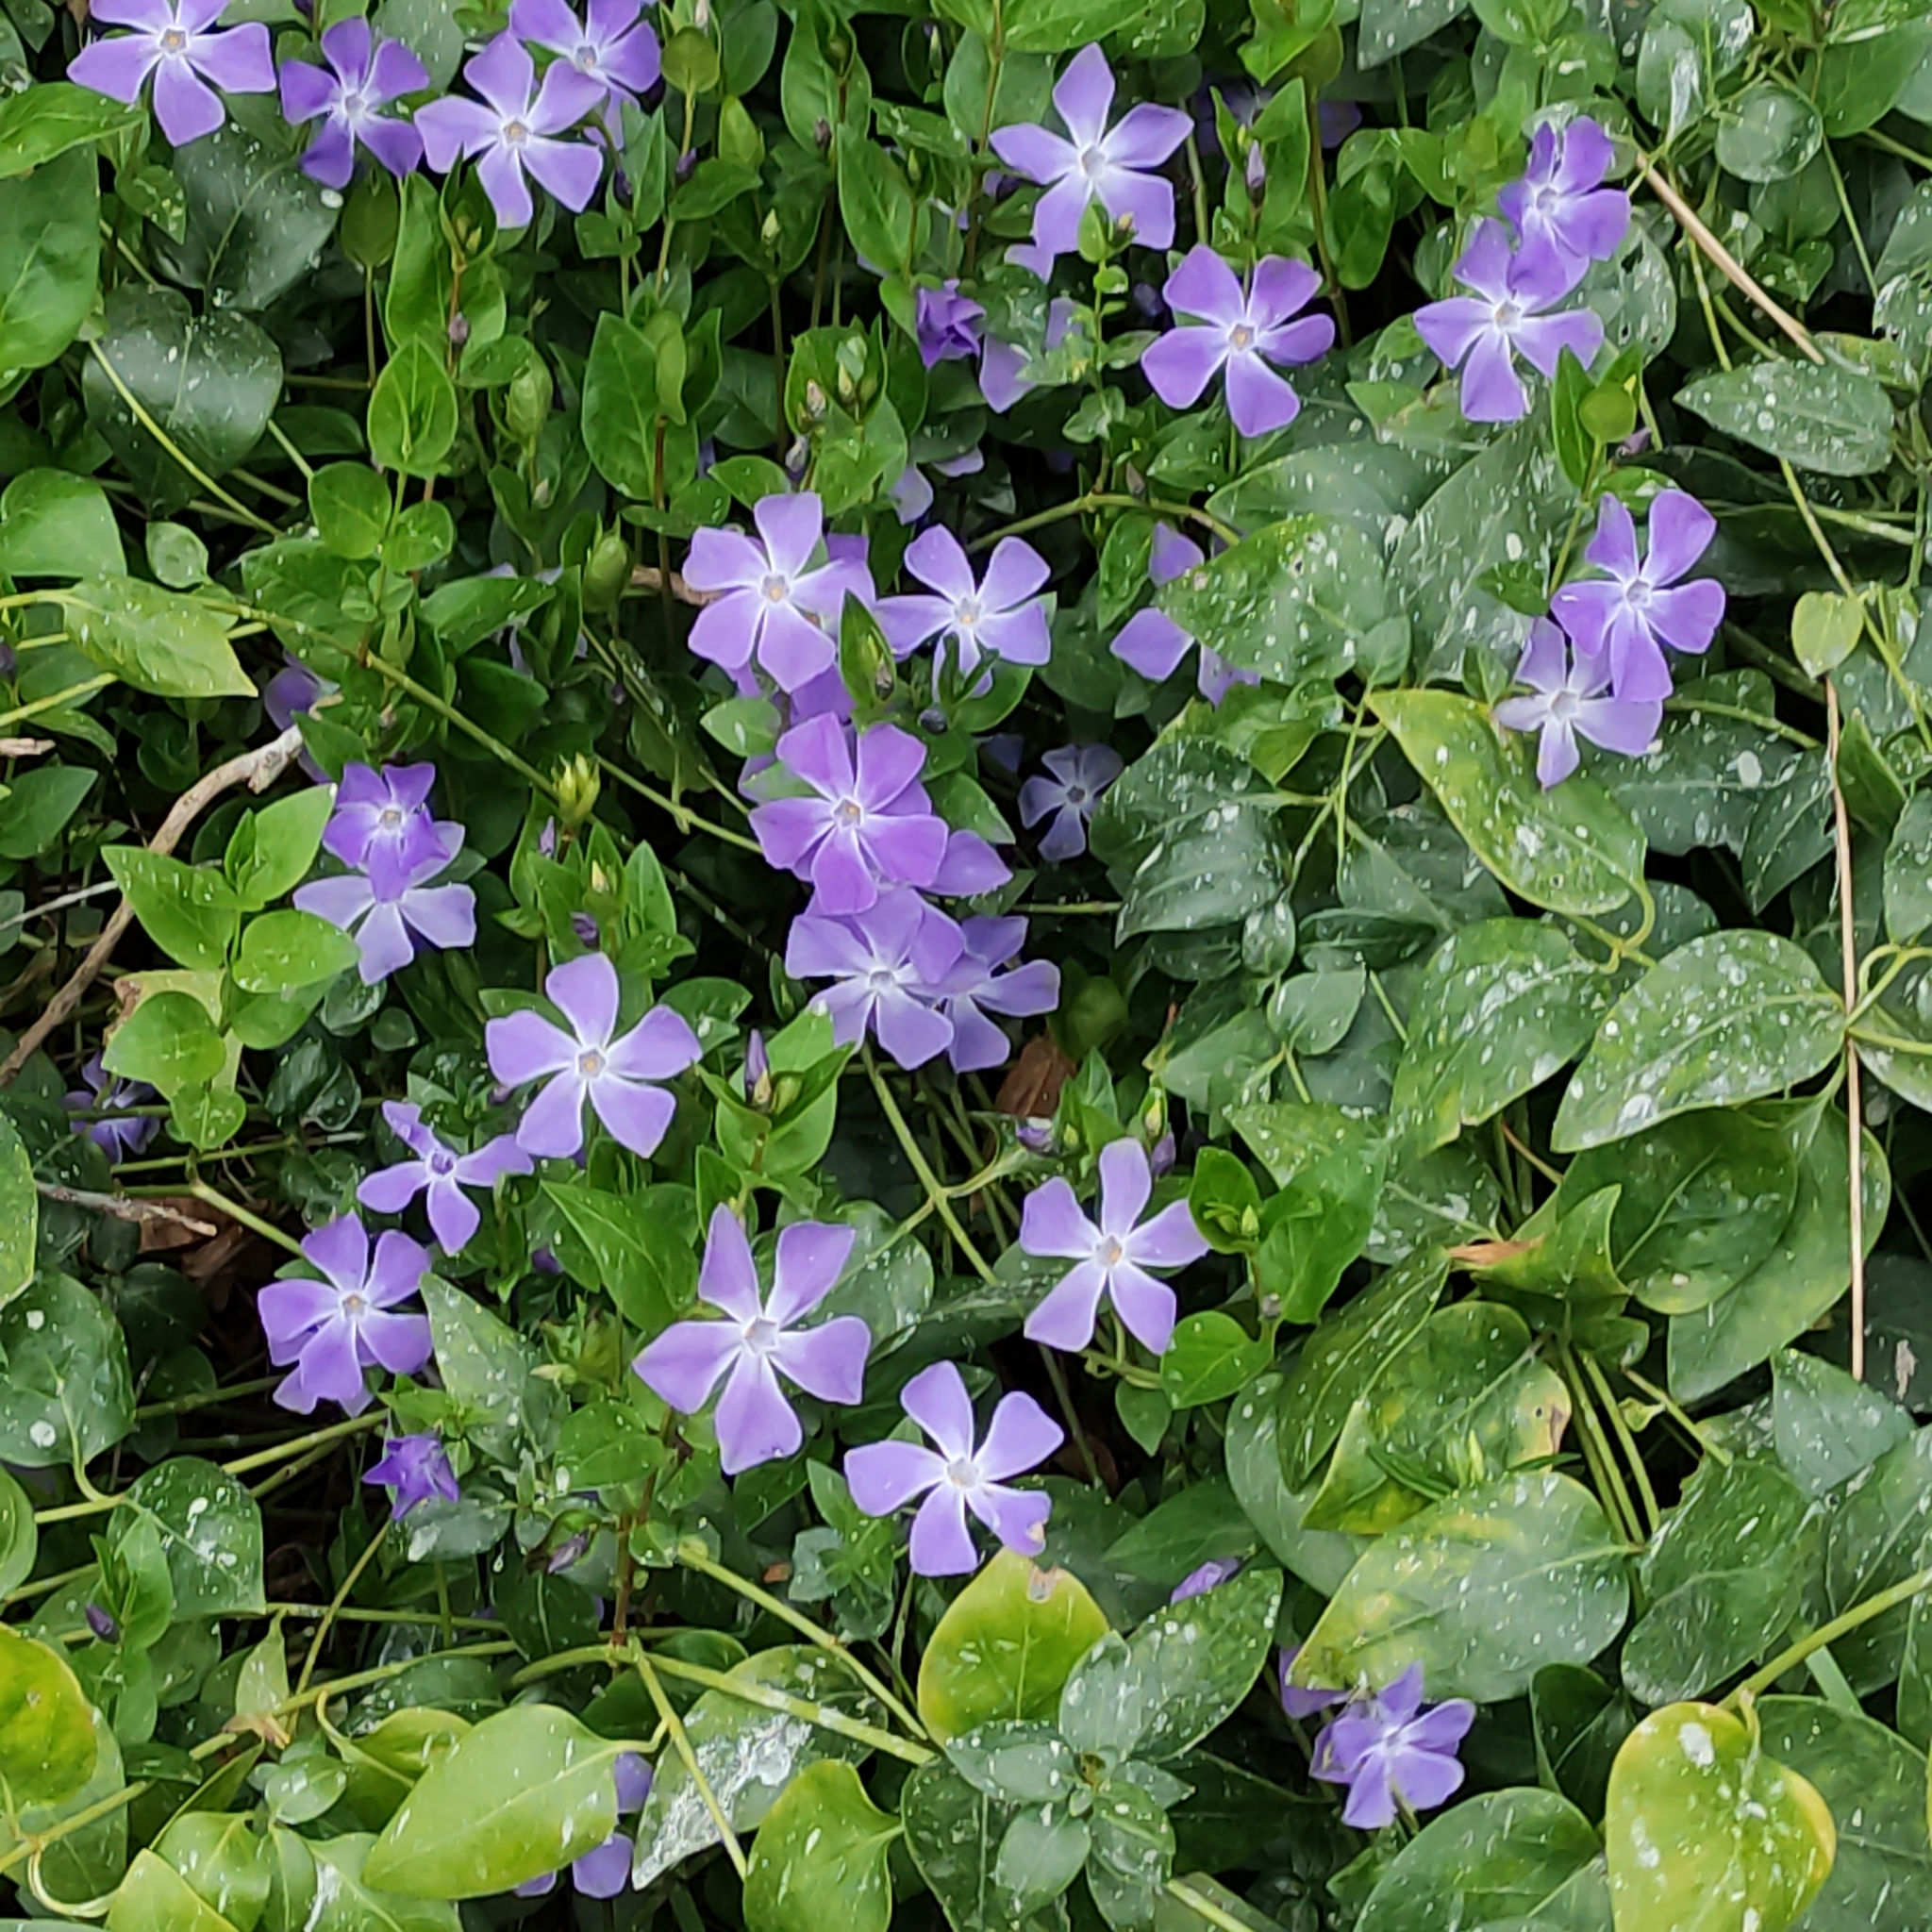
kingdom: Plantae
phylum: Tracheophyta
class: Magnoliopsida
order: Gentianales
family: Apocynaceae
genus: Vinca
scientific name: Vinca major
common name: Greater periwinkle
